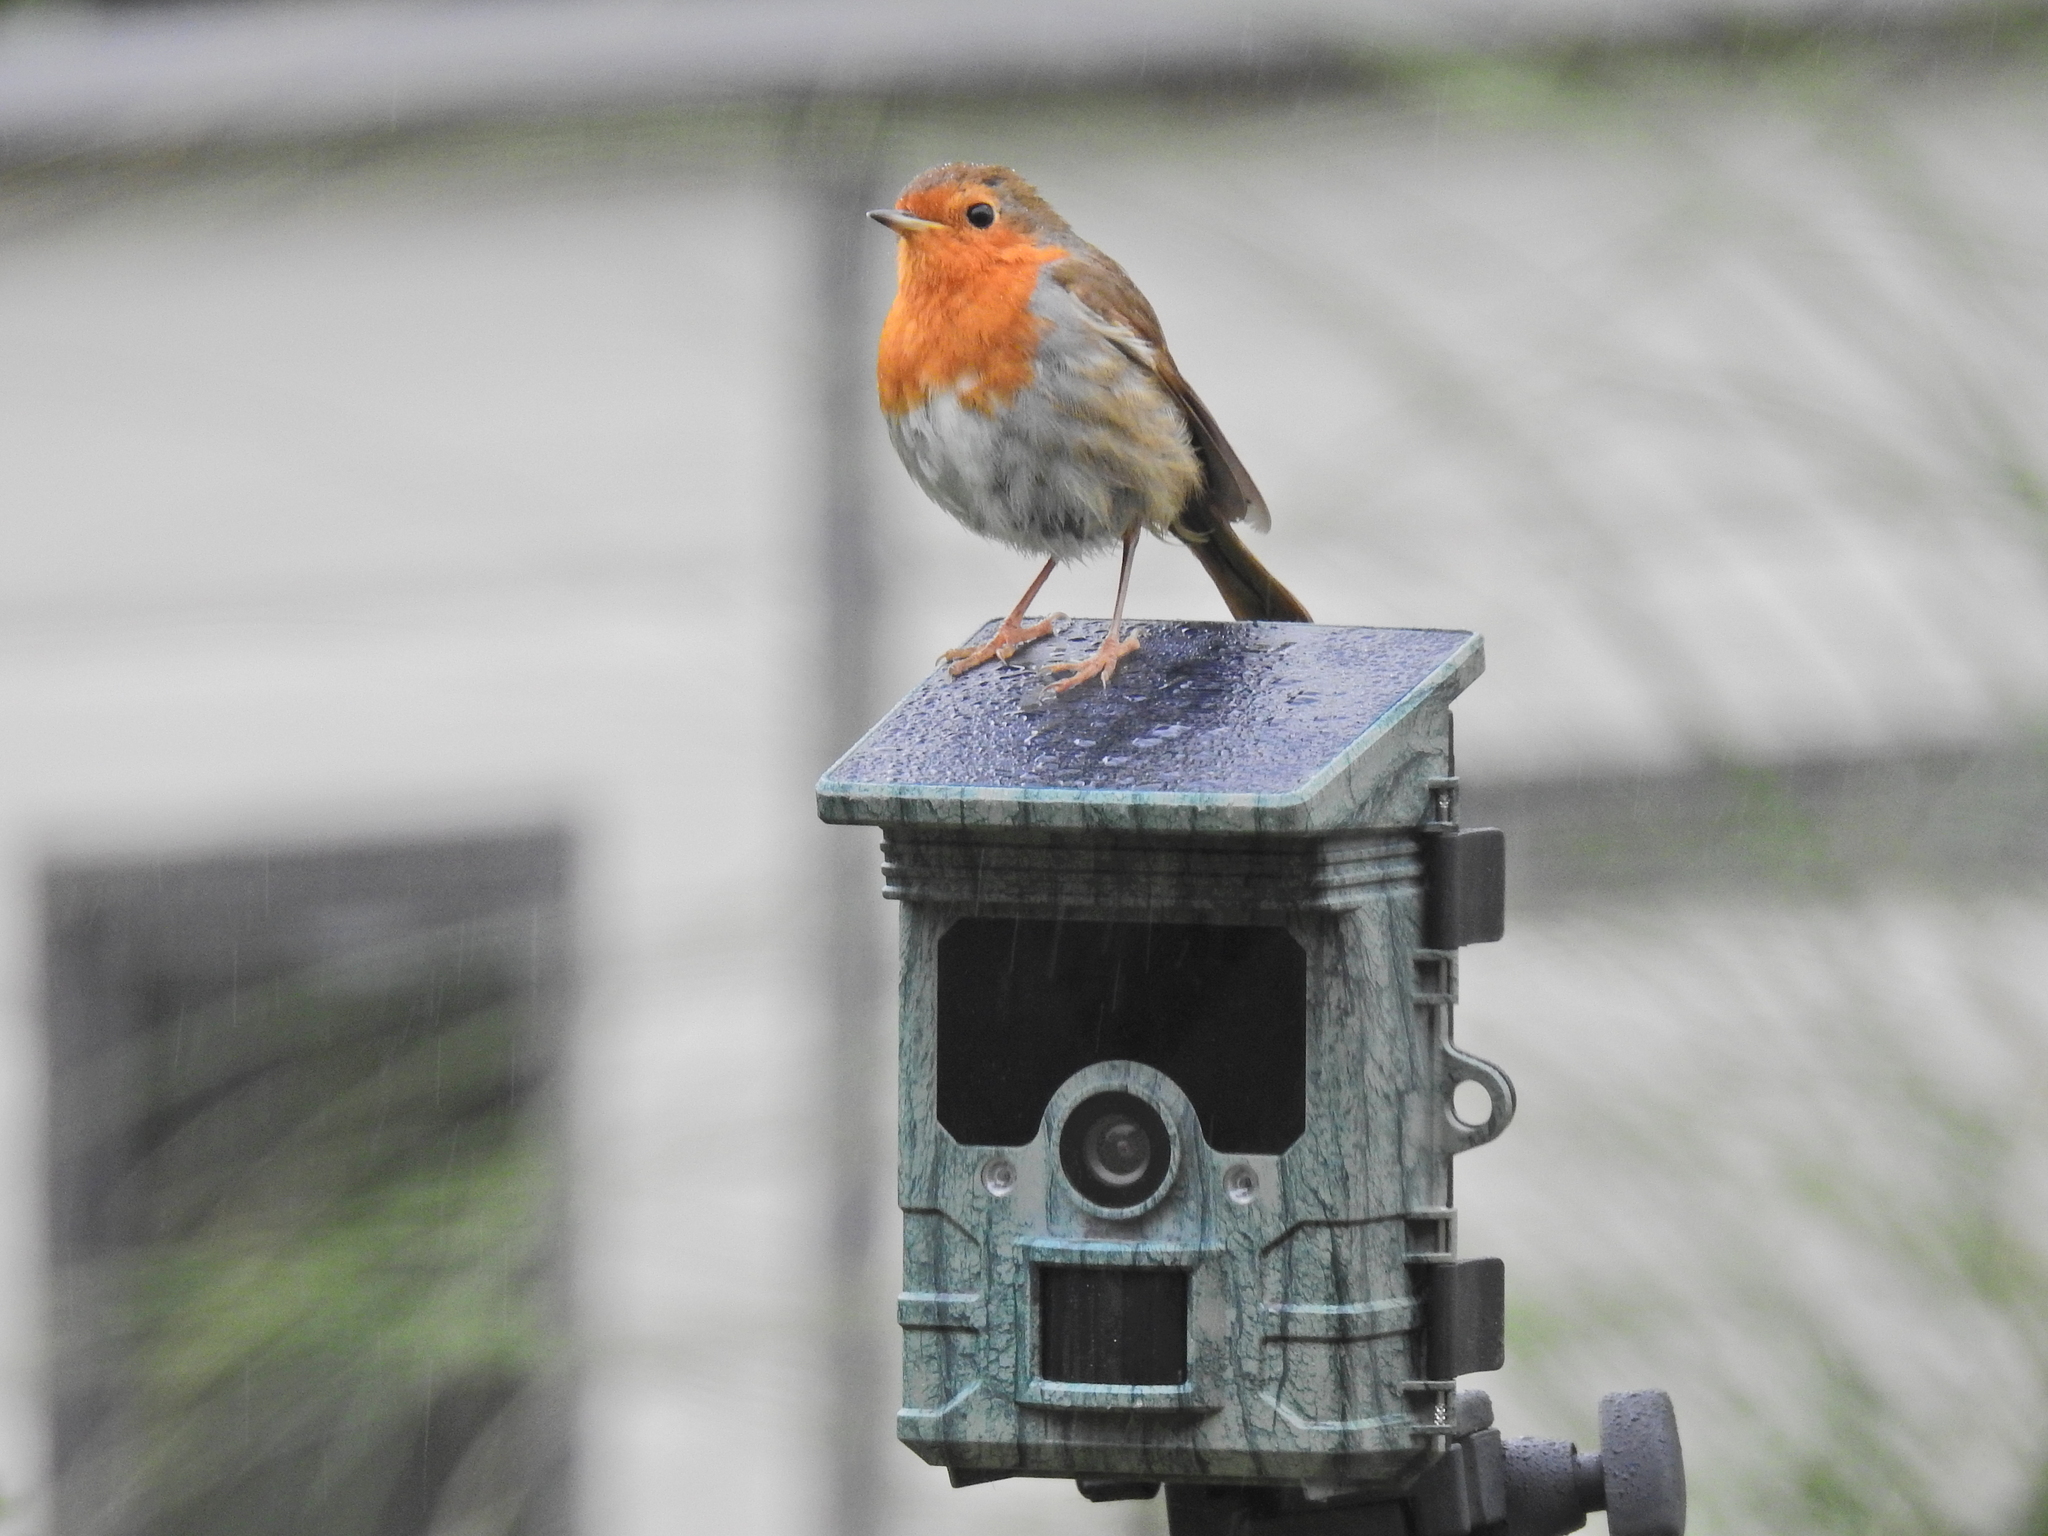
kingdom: Animalia
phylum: Chordata
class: Aves
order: Passeriformes
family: Muscicapidae
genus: Erithacus
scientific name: Erithacus rubecula
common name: European robin
